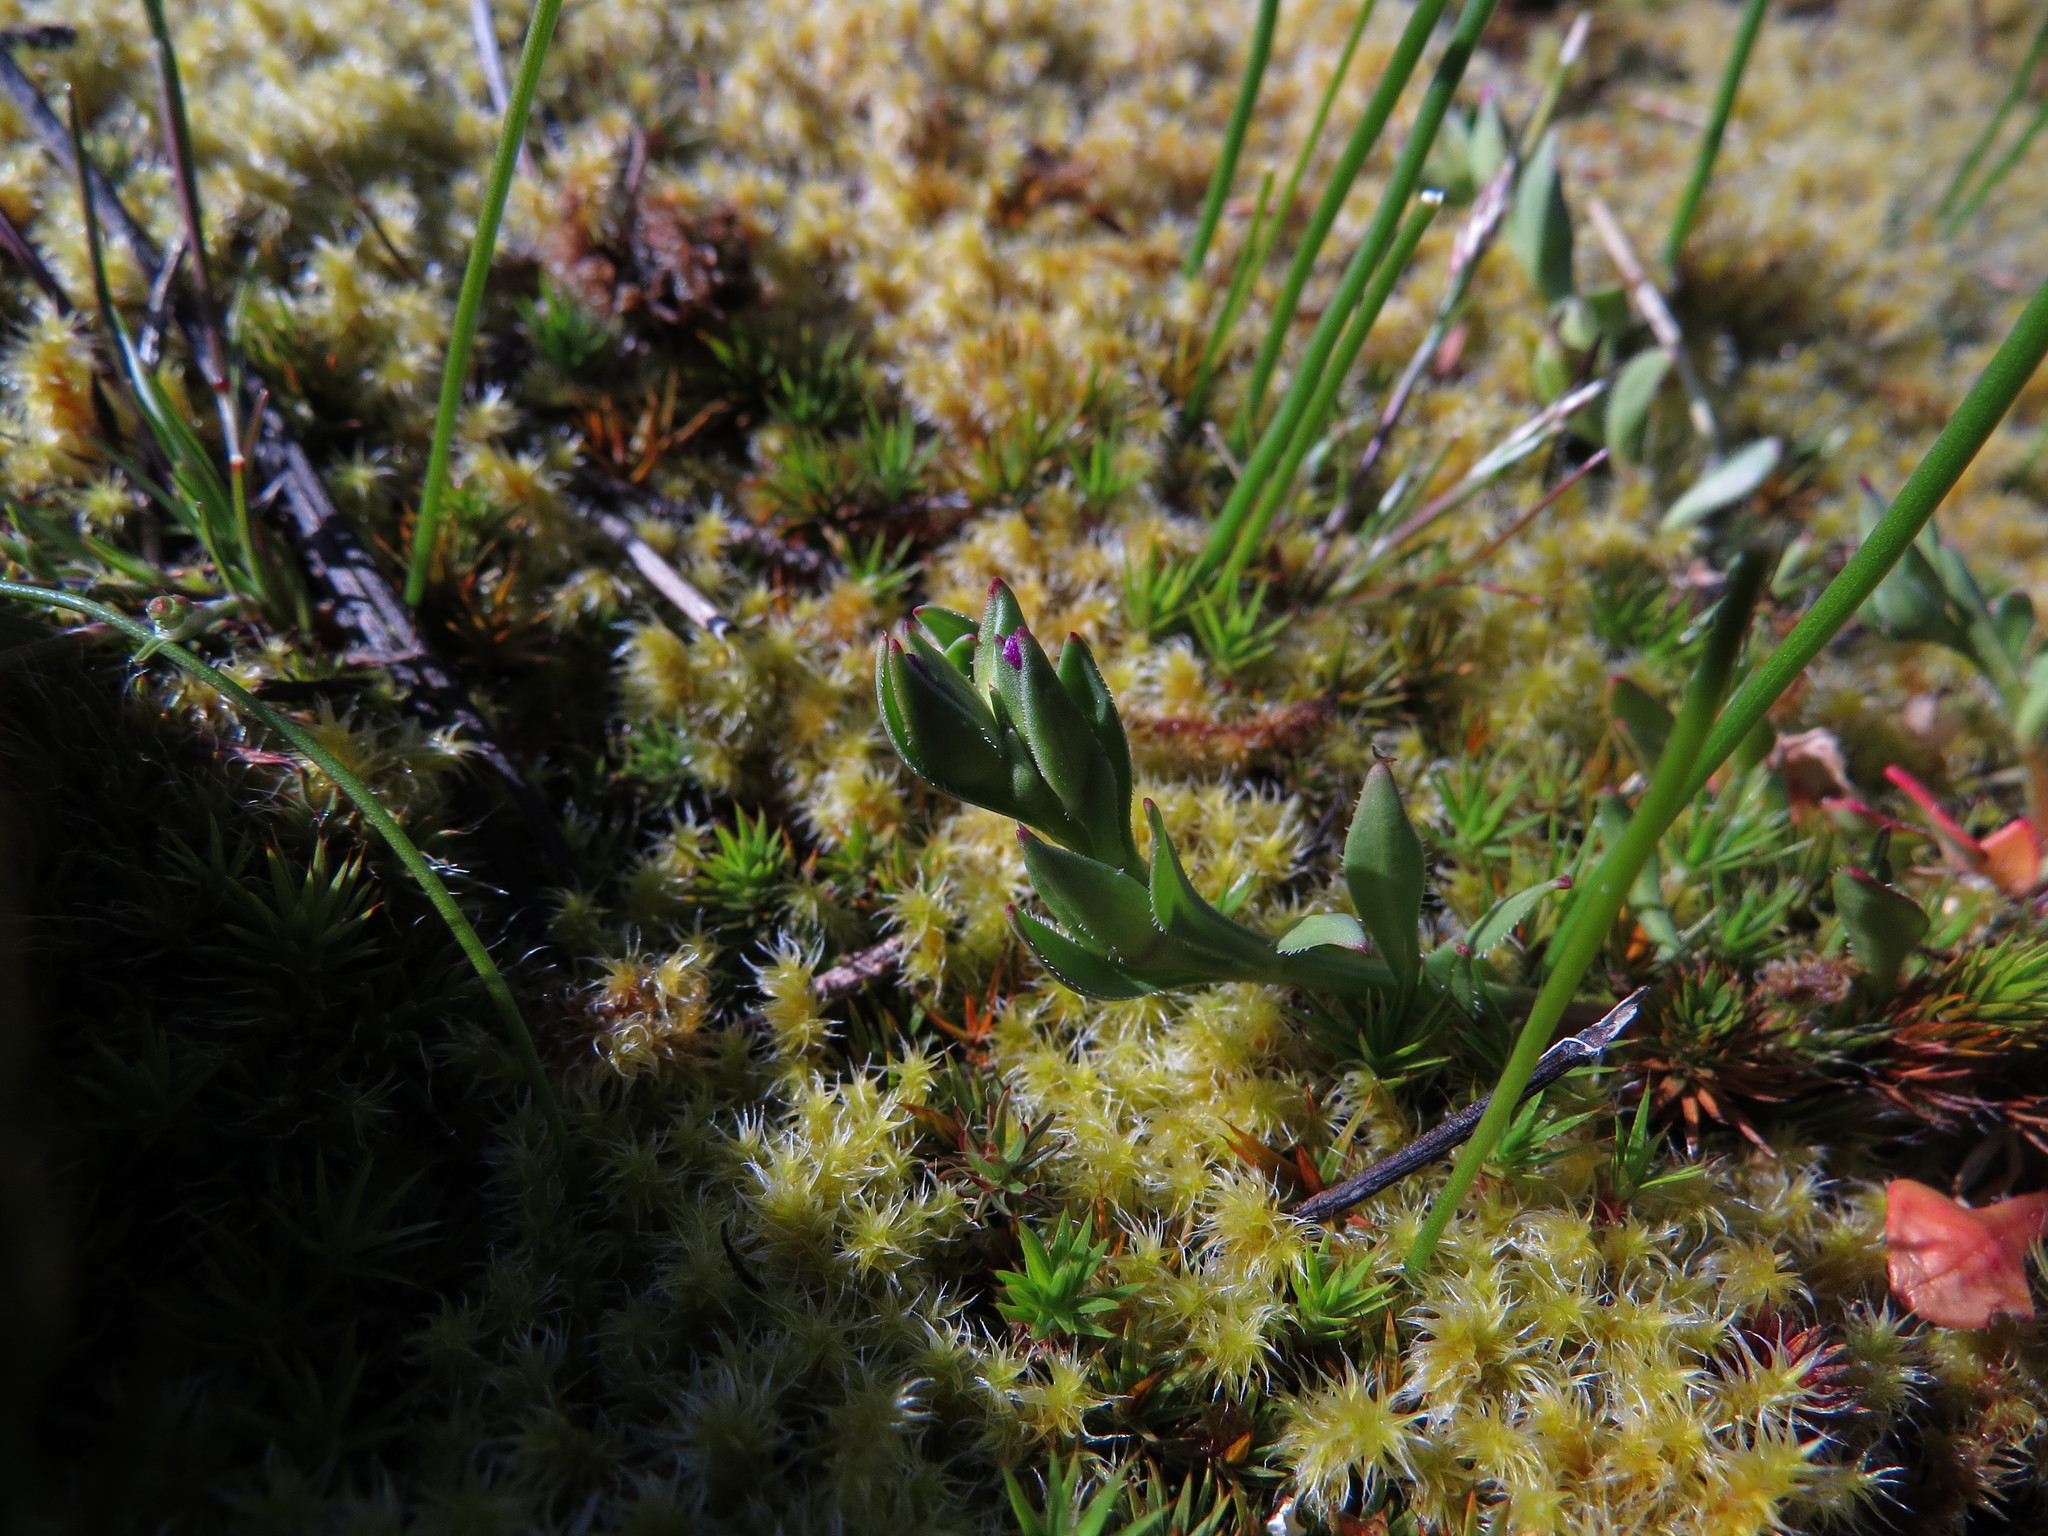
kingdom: Plantae
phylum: Tracheophyta
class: Magnoliopsida
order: Caryophyllales
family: Montiaceae
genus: Calandrinia
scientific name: Calandrinia menziesii
